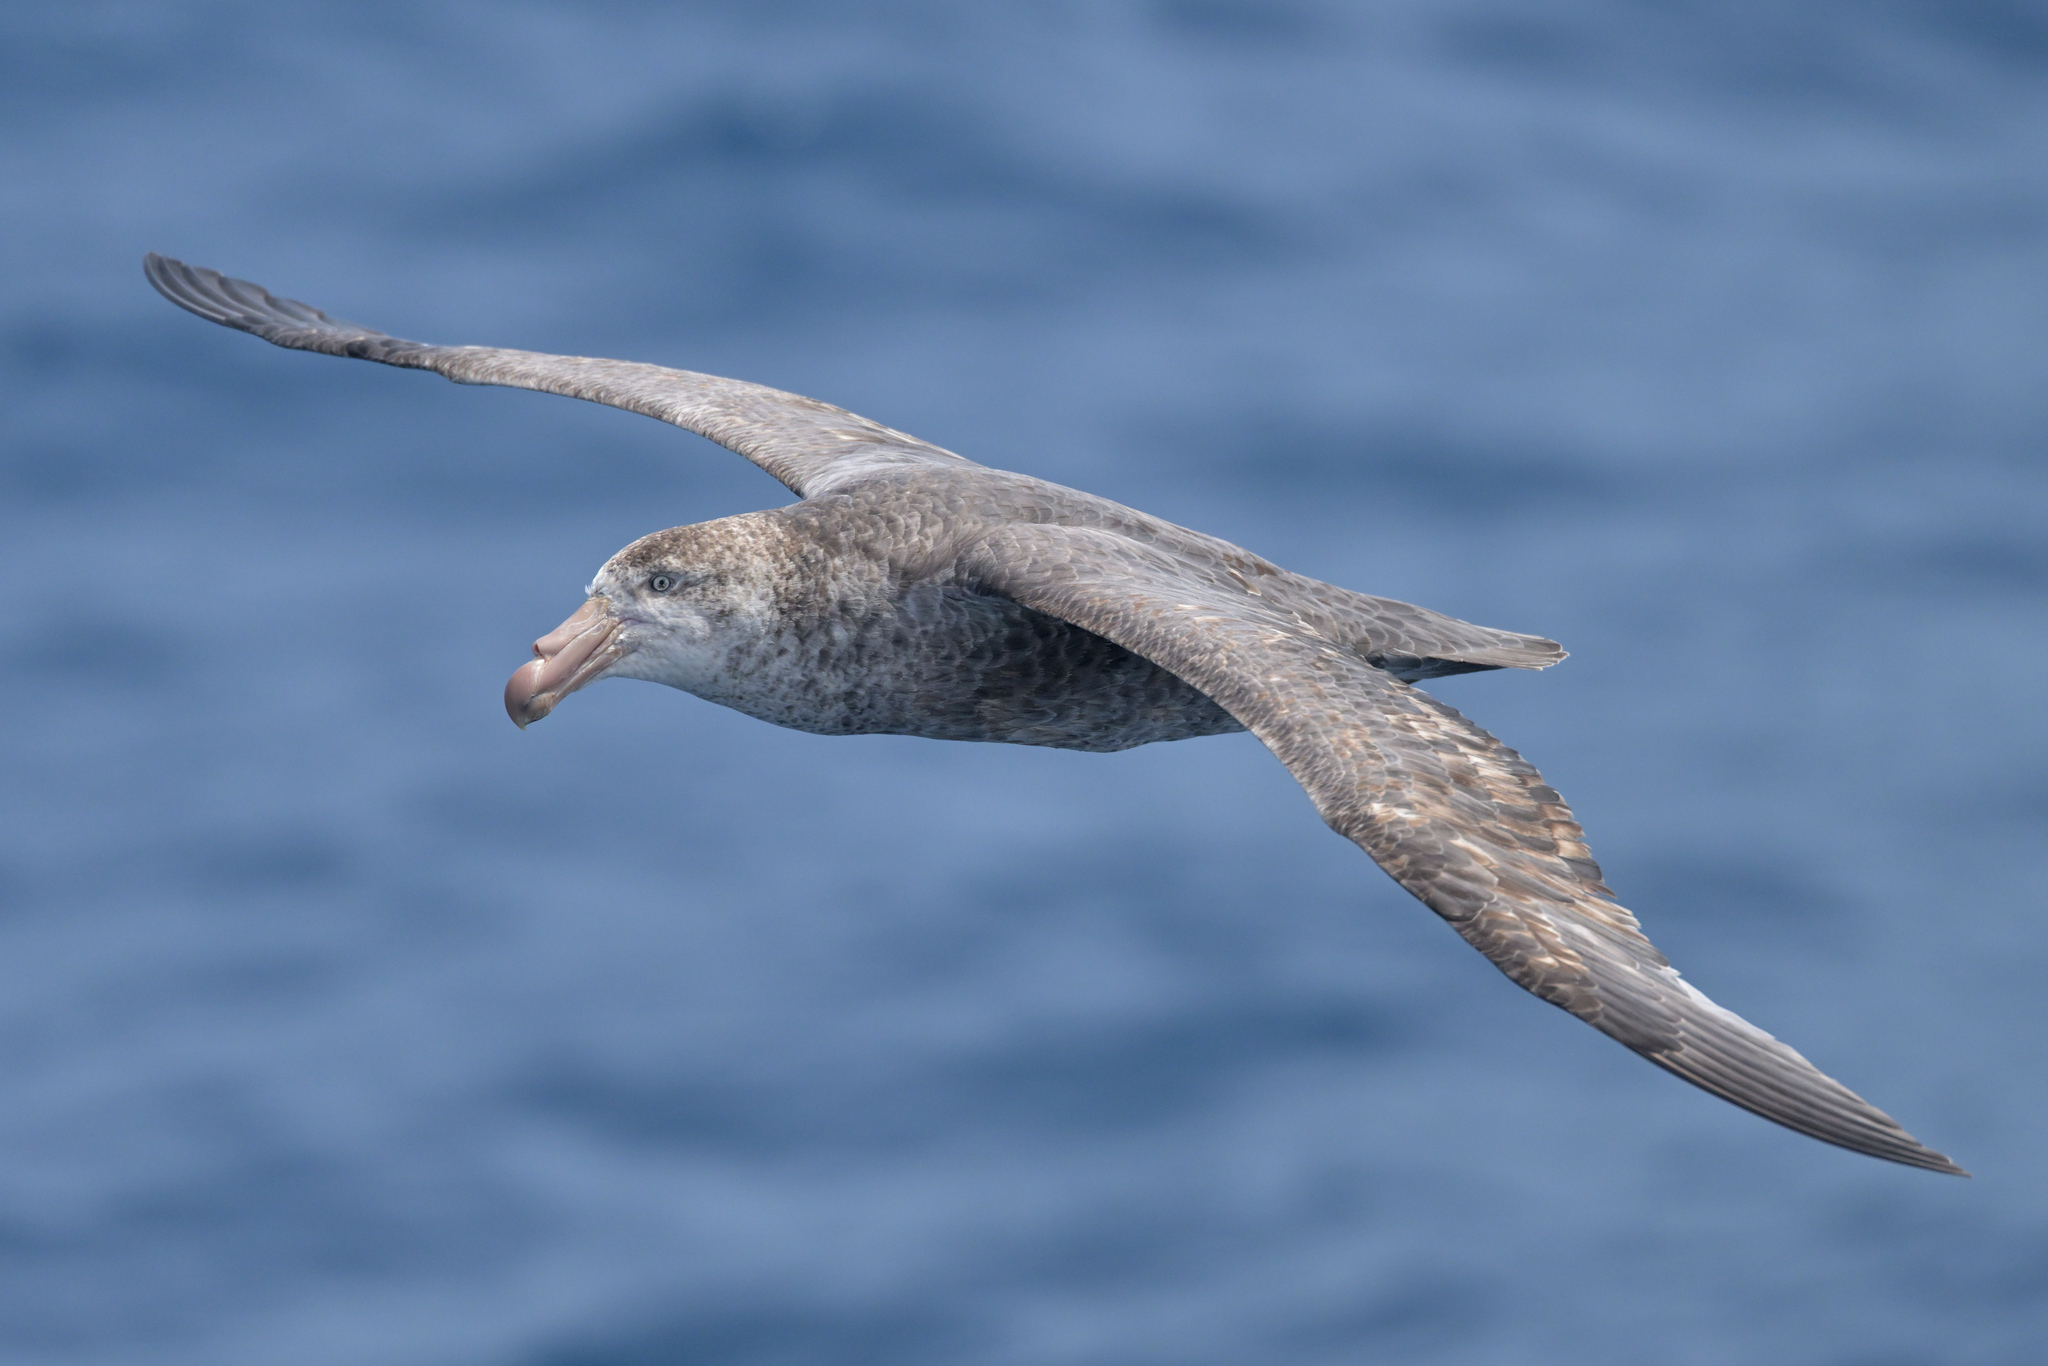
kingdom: Animalia
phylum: Chordata
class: Aves
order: Procellariiformes
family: Procellariidae
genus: Macronectes
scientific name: Macronectes halli
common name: Northern giant petrel
